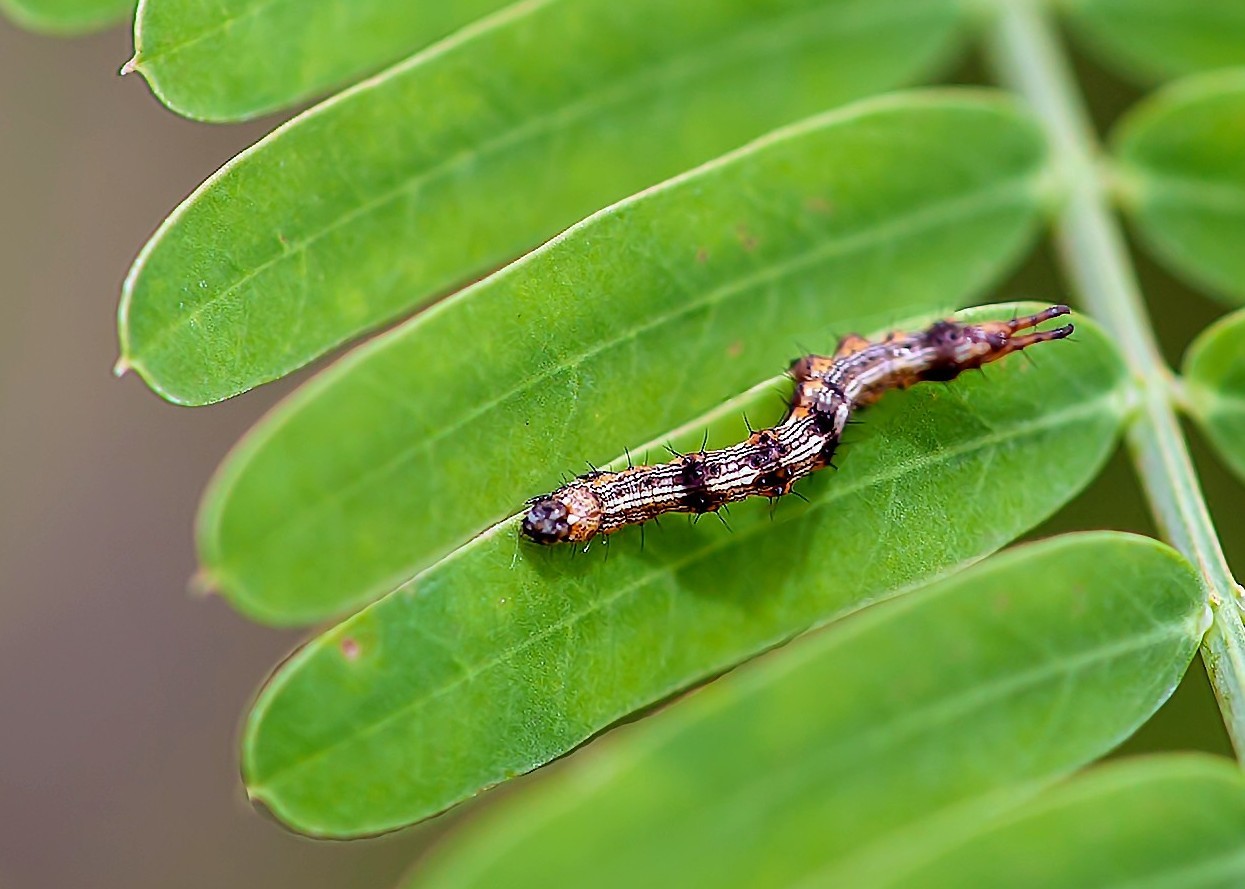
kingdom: Animalia
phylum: Arthropoda
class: Insecta
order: Lepidoptera
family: Erebidae
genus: Selenisa
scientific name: Selenisa sueroides
